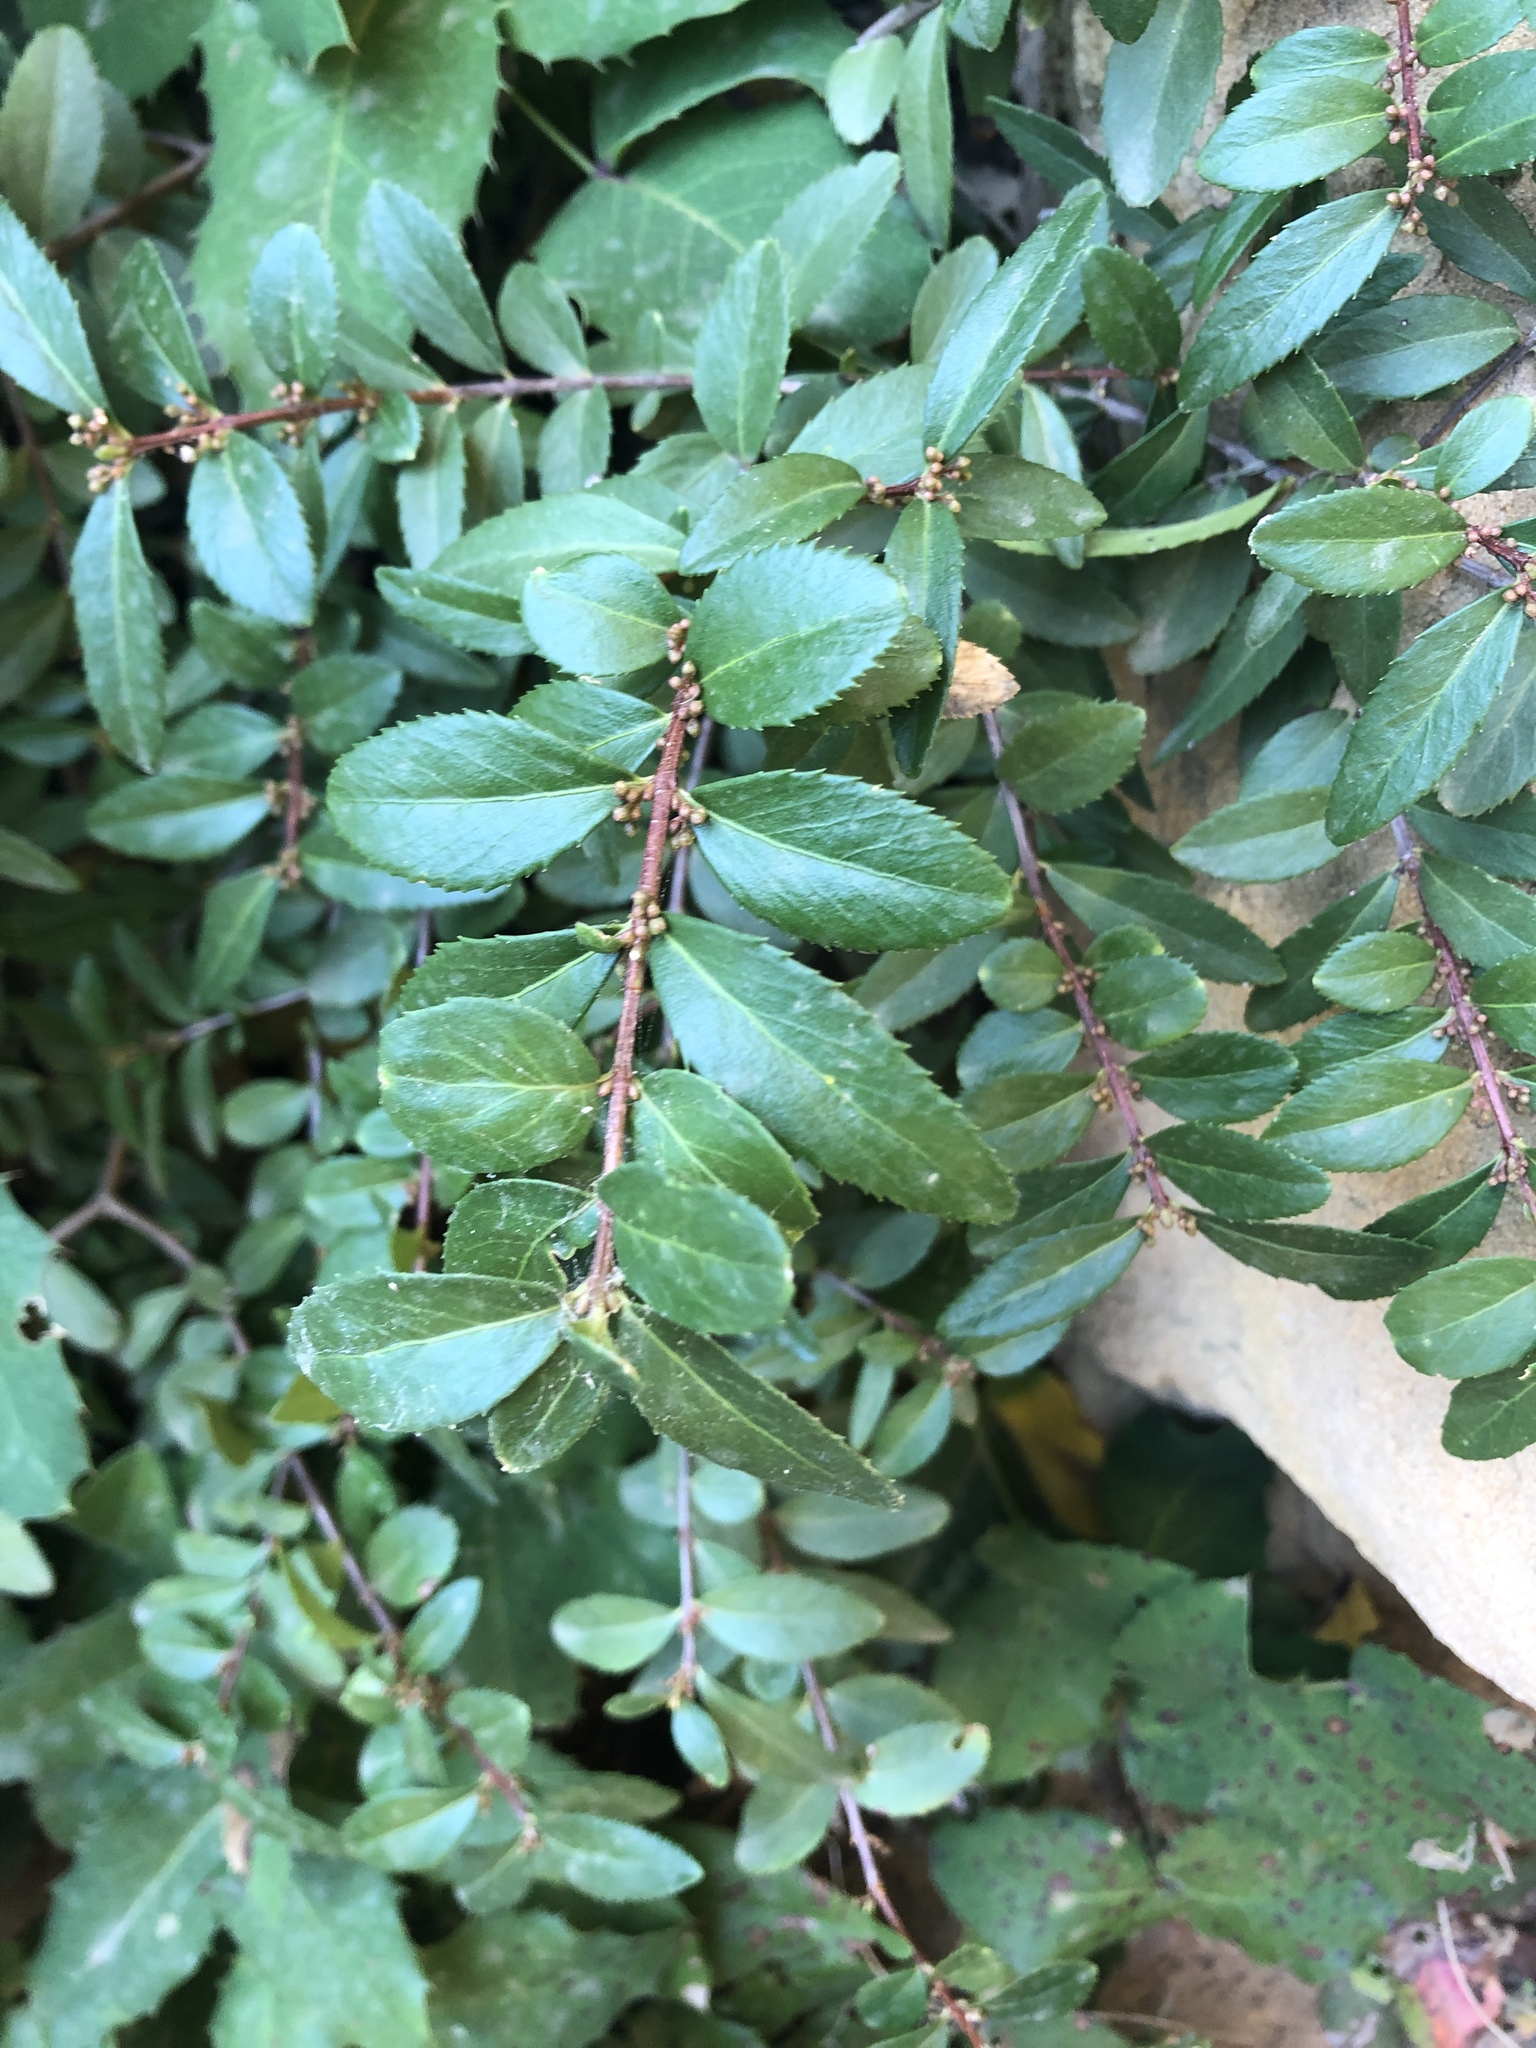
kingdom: Plantae
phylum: Tracheophyta
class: Magnoliopsida
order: Celastrales
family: Celastraceae
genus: Paxistima
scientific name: Paxistima myrsinites
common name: Mountain-lover
